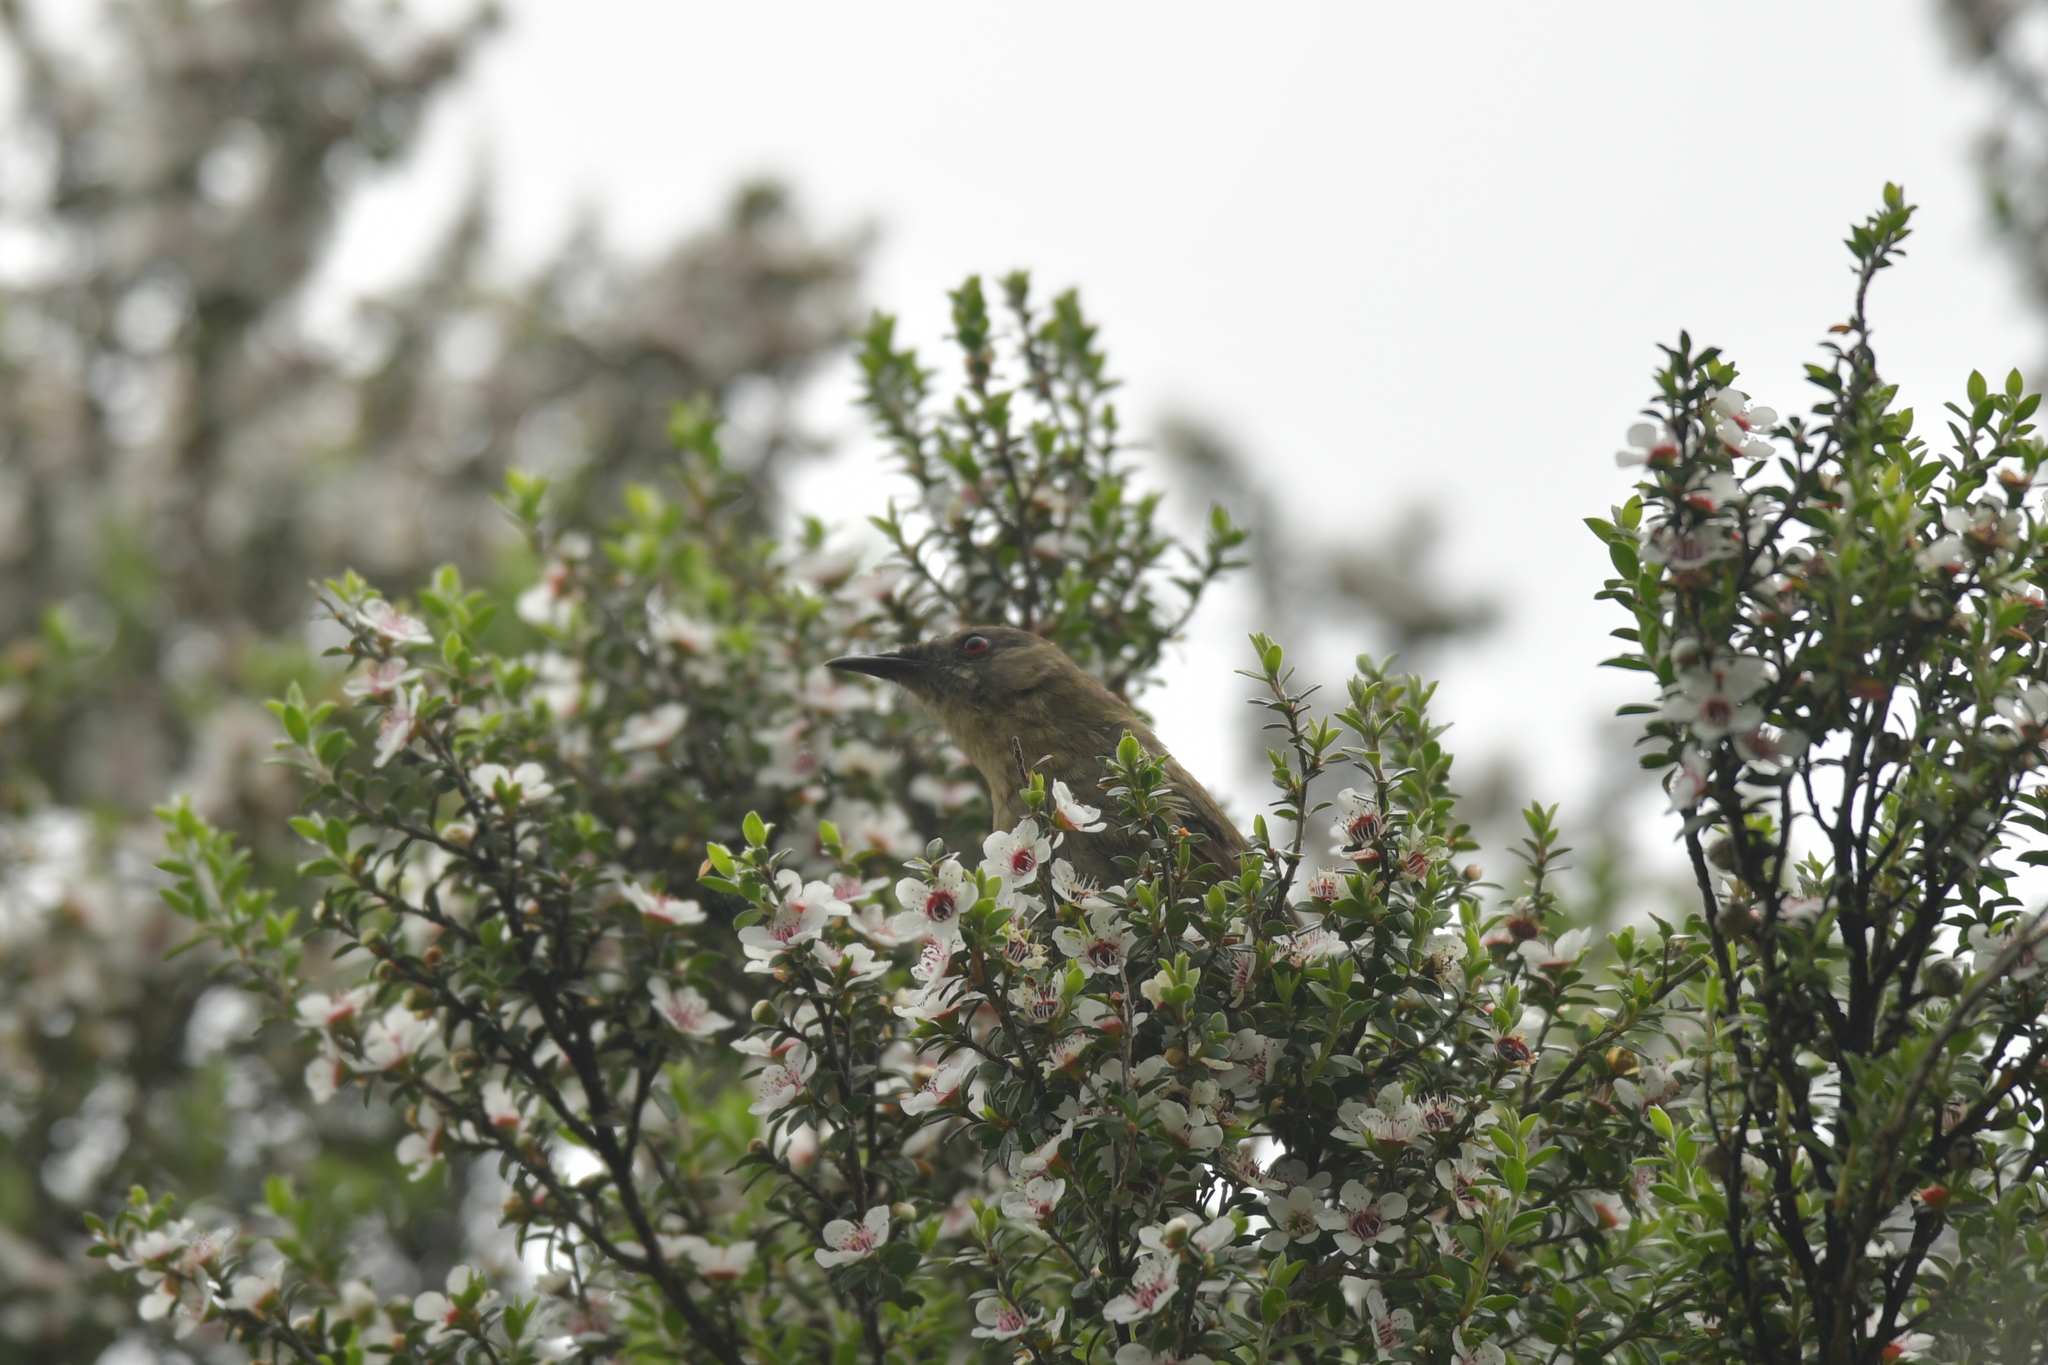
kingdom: Animalia
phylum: Chordata
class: Aves
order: Passeriformes
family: Meliphagidae
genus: Anthornis
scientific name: Anthornis melanura
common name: New zealand bellbird
